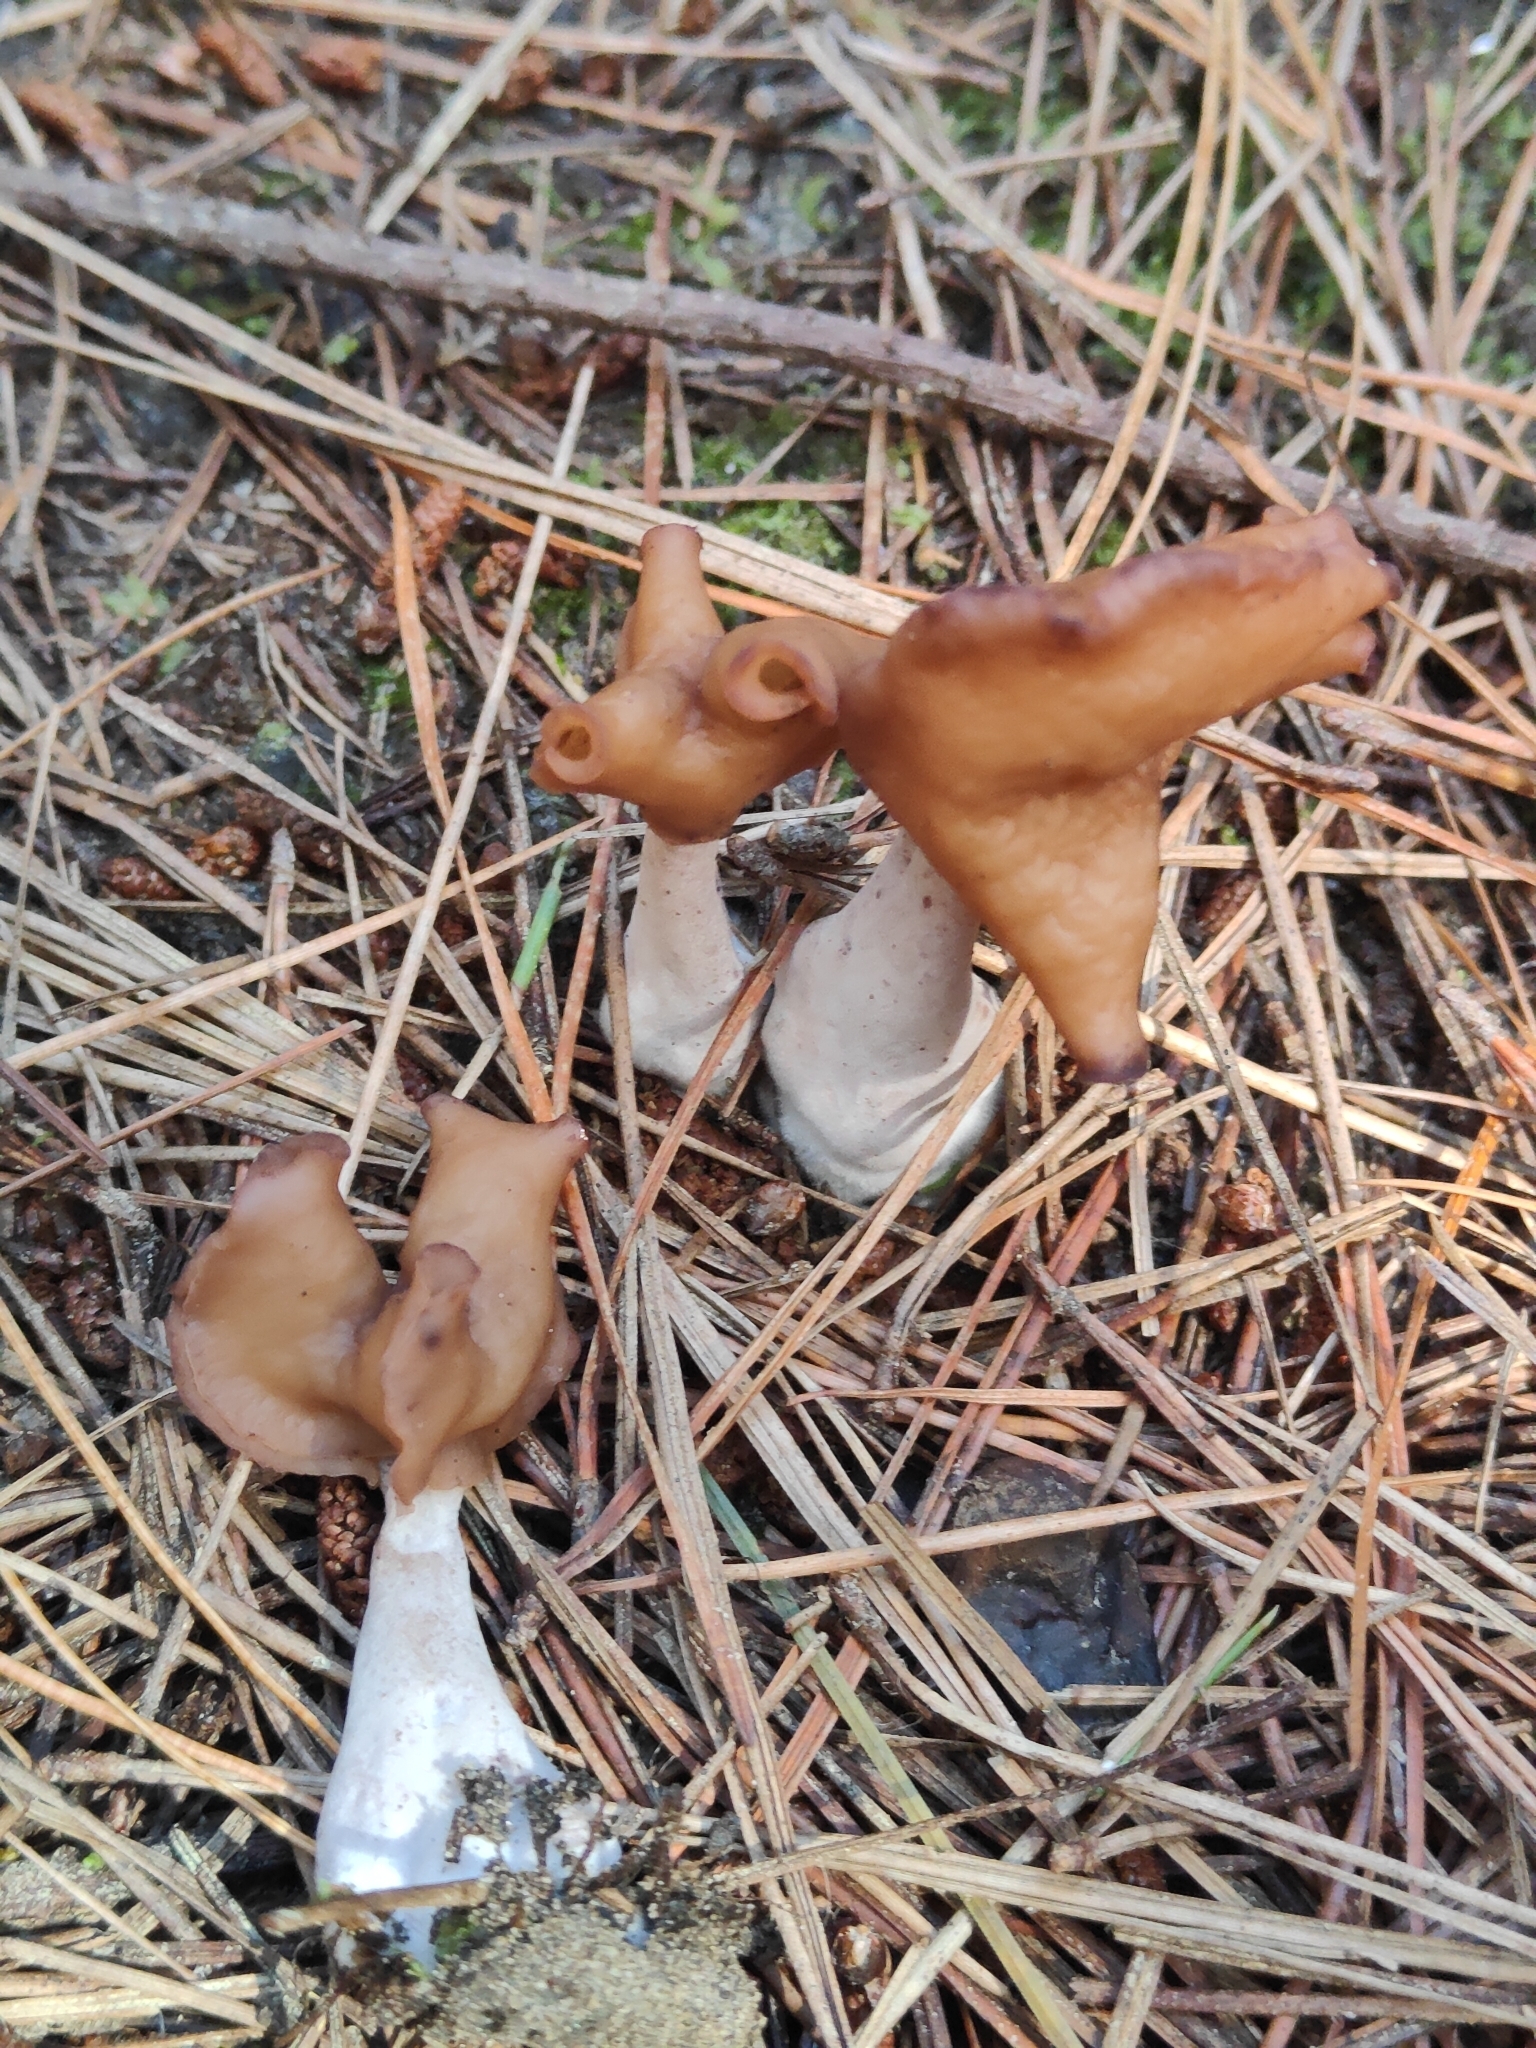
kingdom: Fungi
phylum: Ascomycota
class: Pezizomycetes
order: Pezizales
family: Discinaceae
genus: Gyromitra
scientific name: Gyromitra infula
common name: Pouched false morel
